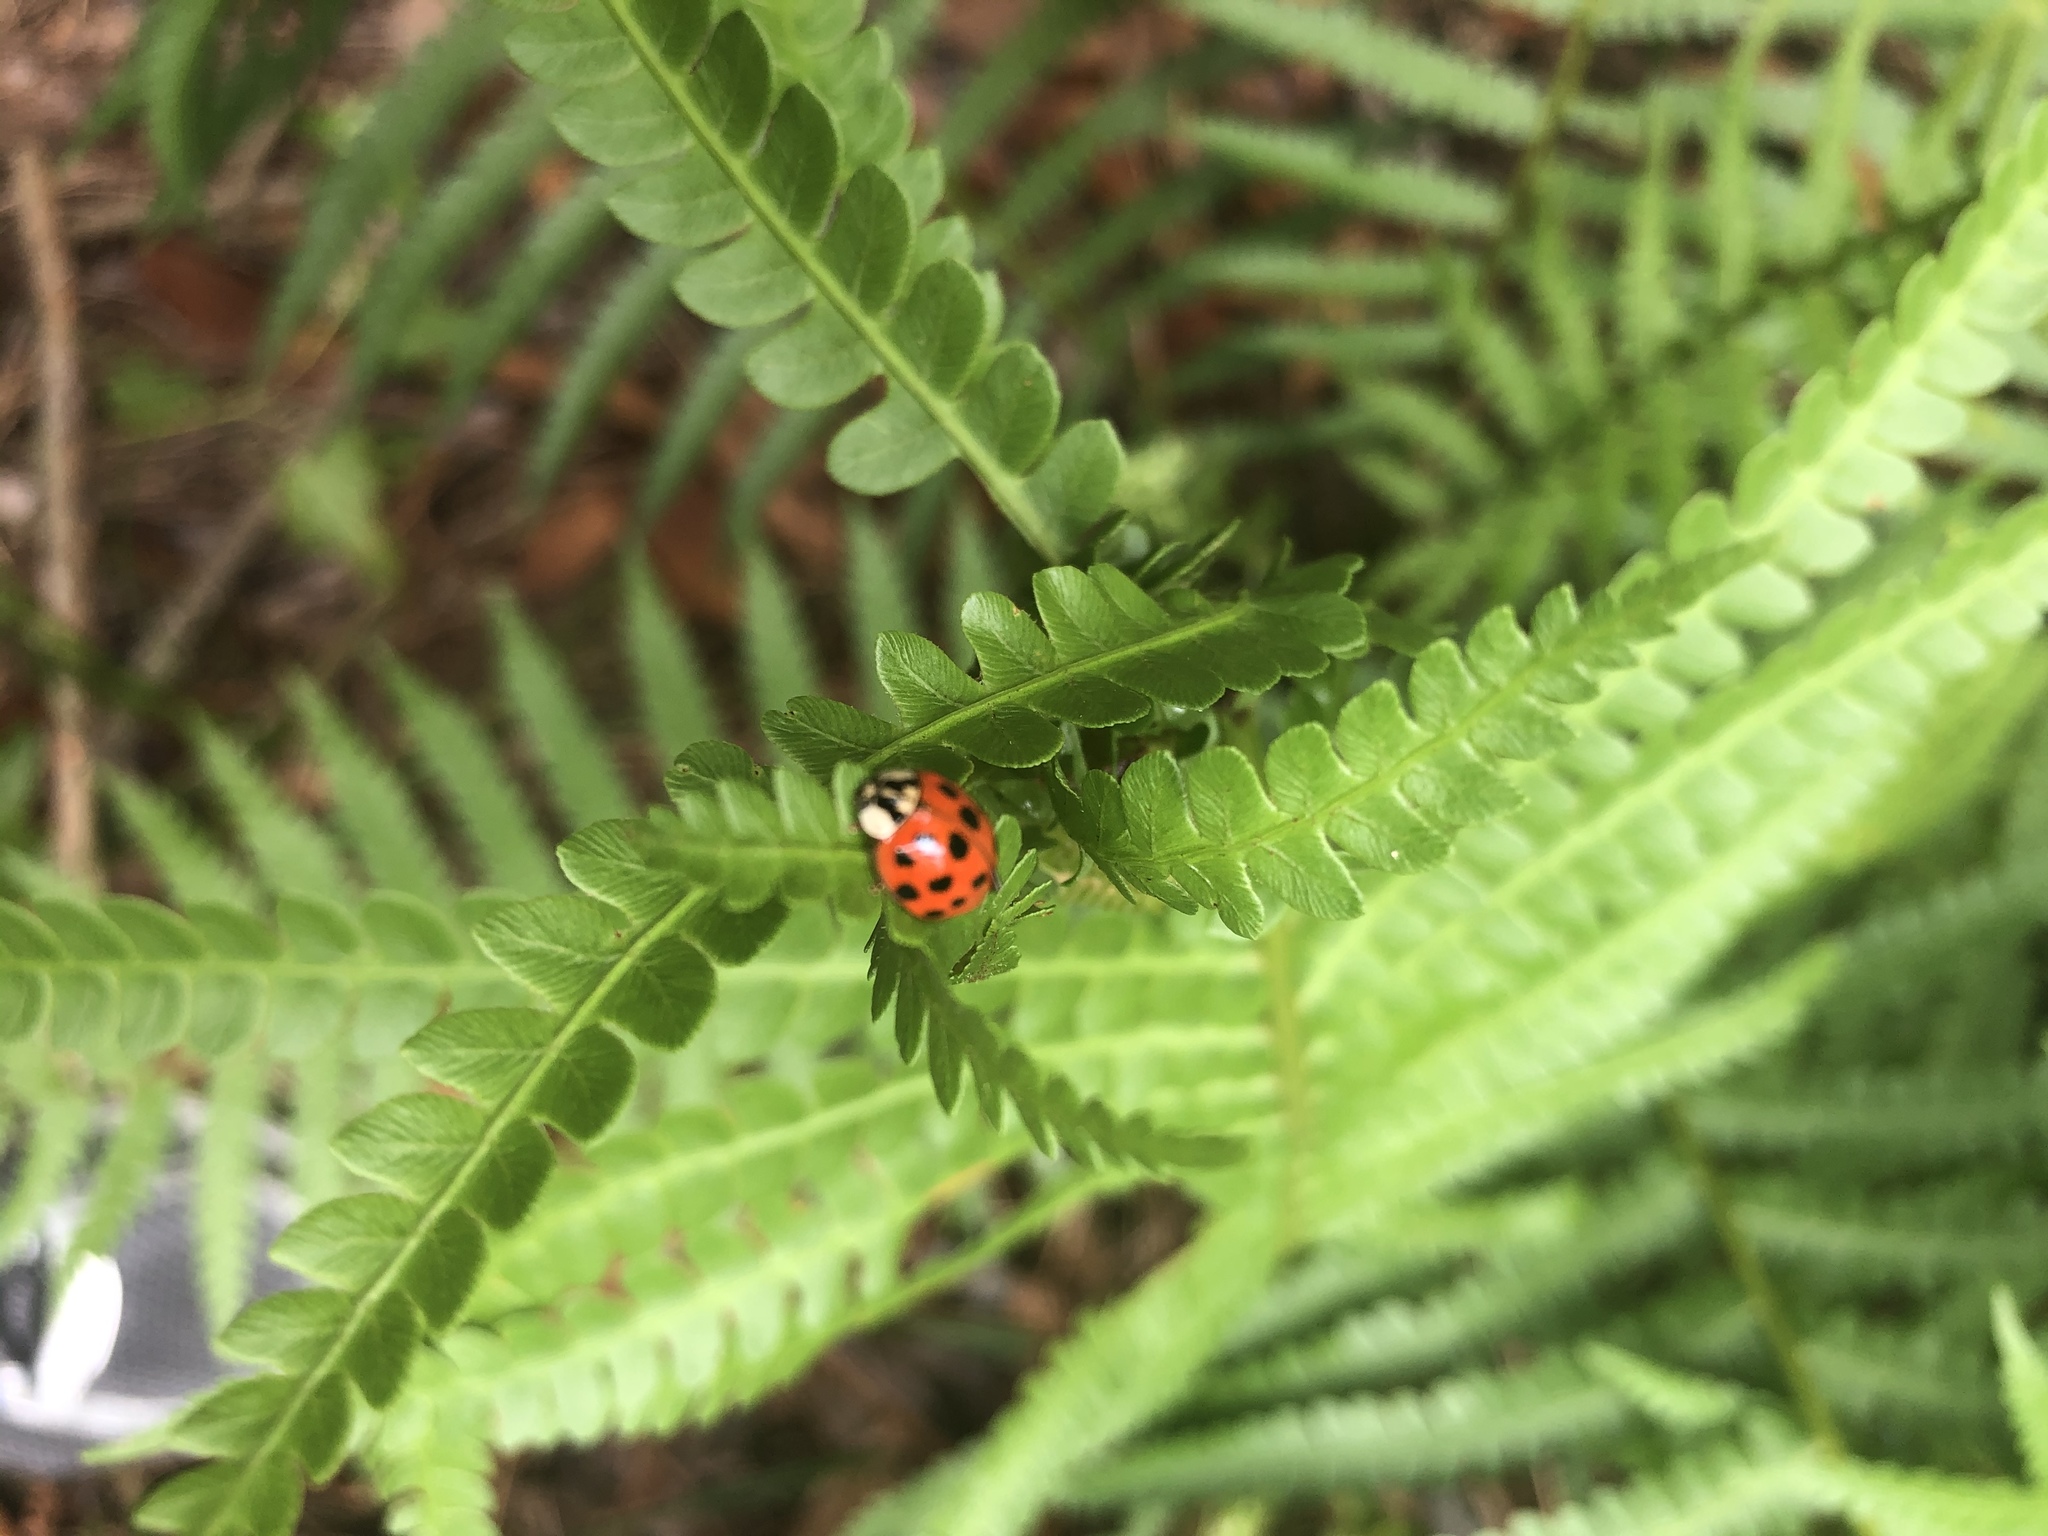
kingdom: Animalia
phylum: Arthropoda
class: Insecta
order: Coleoptera
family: Coccinellidae
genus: Harmonia
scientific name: Harmonia axyridis
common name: Harlequin ladybird
